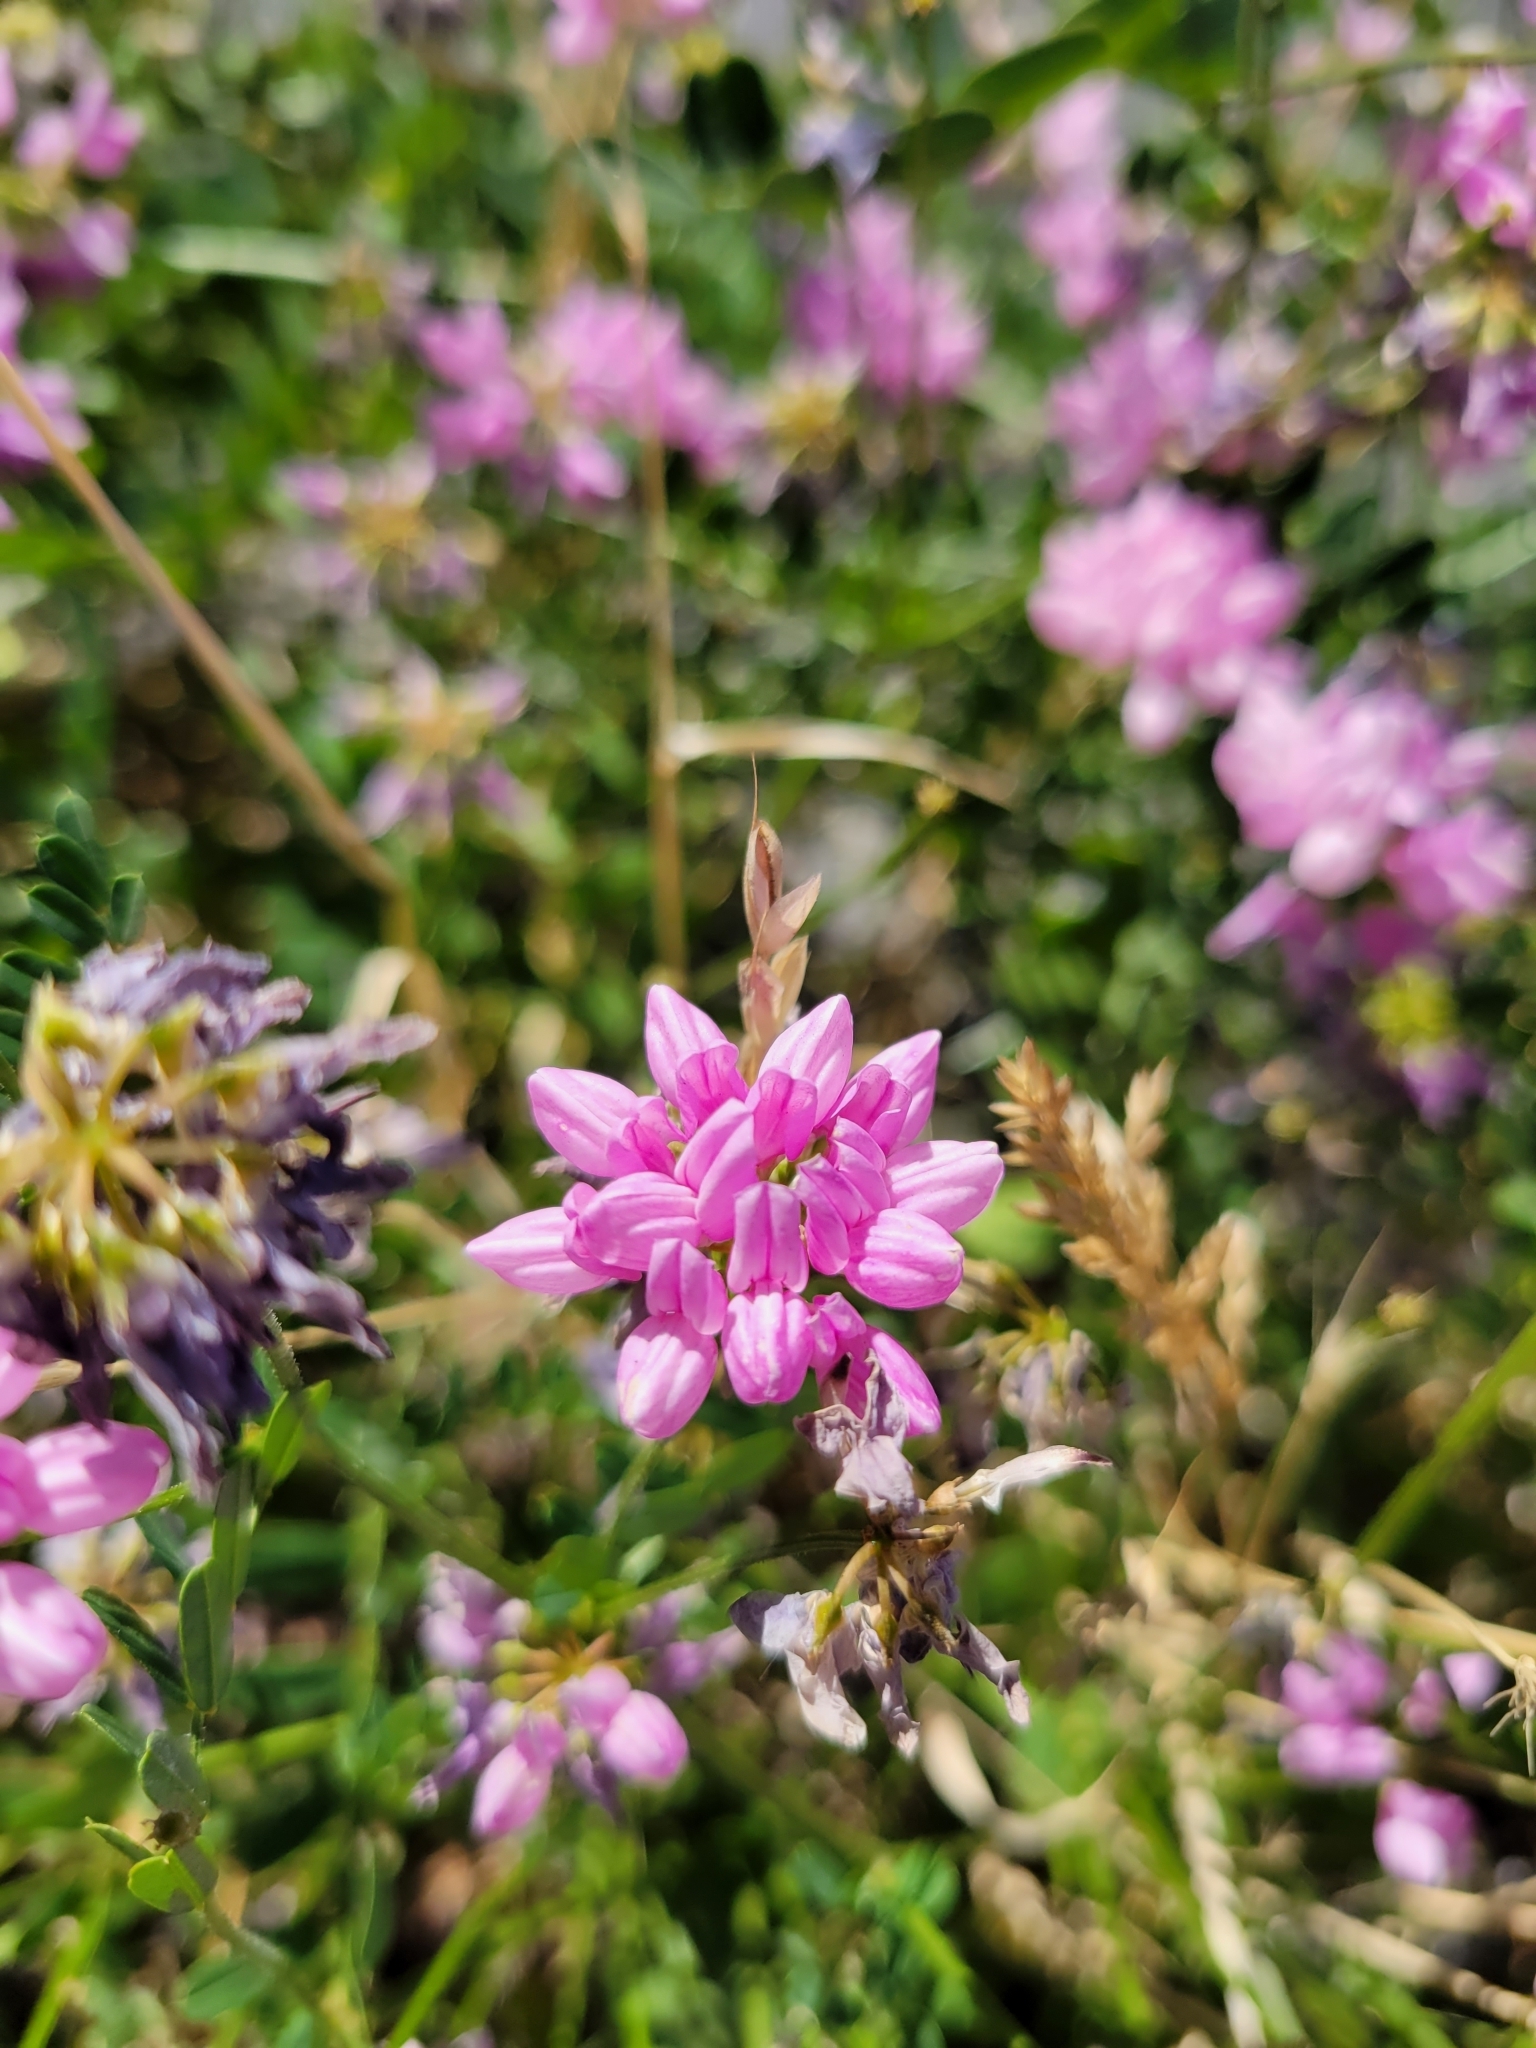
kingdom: Plantae
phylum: Tracheophyta
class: Magnoliopsida
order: Fabales
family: Fabaceae
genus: Coronilla
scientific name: Coronilla varia
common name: Crownvetch
